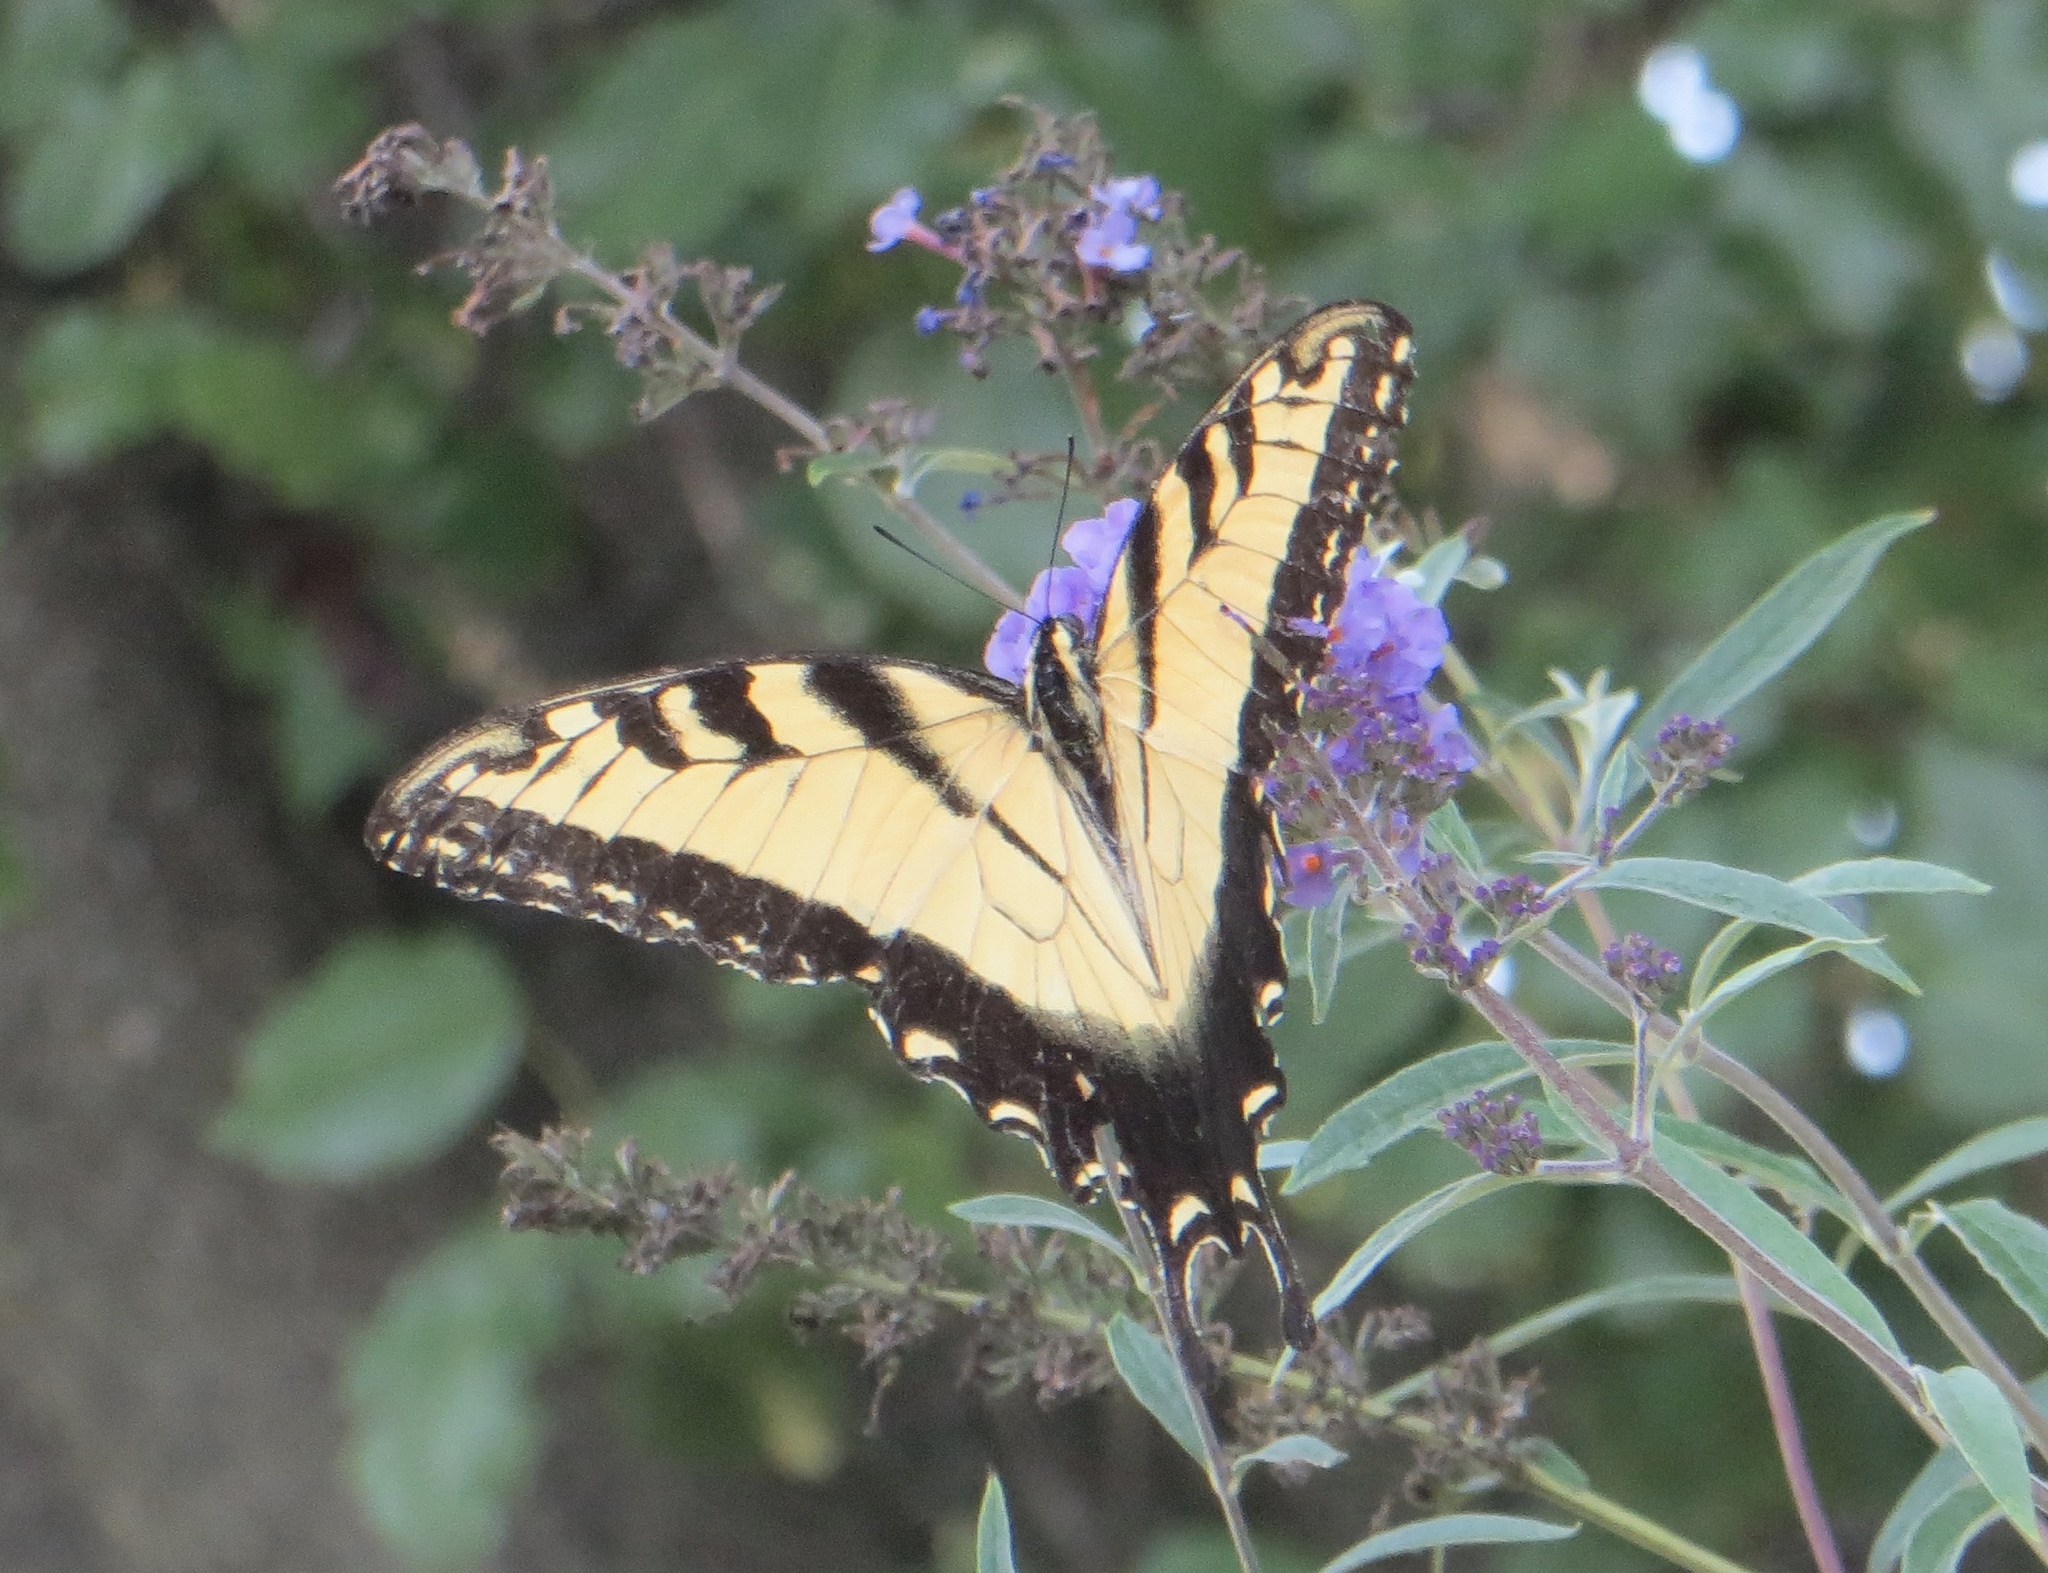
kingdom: Animalia
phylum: Arthropoda
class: Insecta
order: Lepidoptera
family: Papilionidae
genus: Papilio
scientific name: Papilio glaucus
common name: Tiger swallowtail
